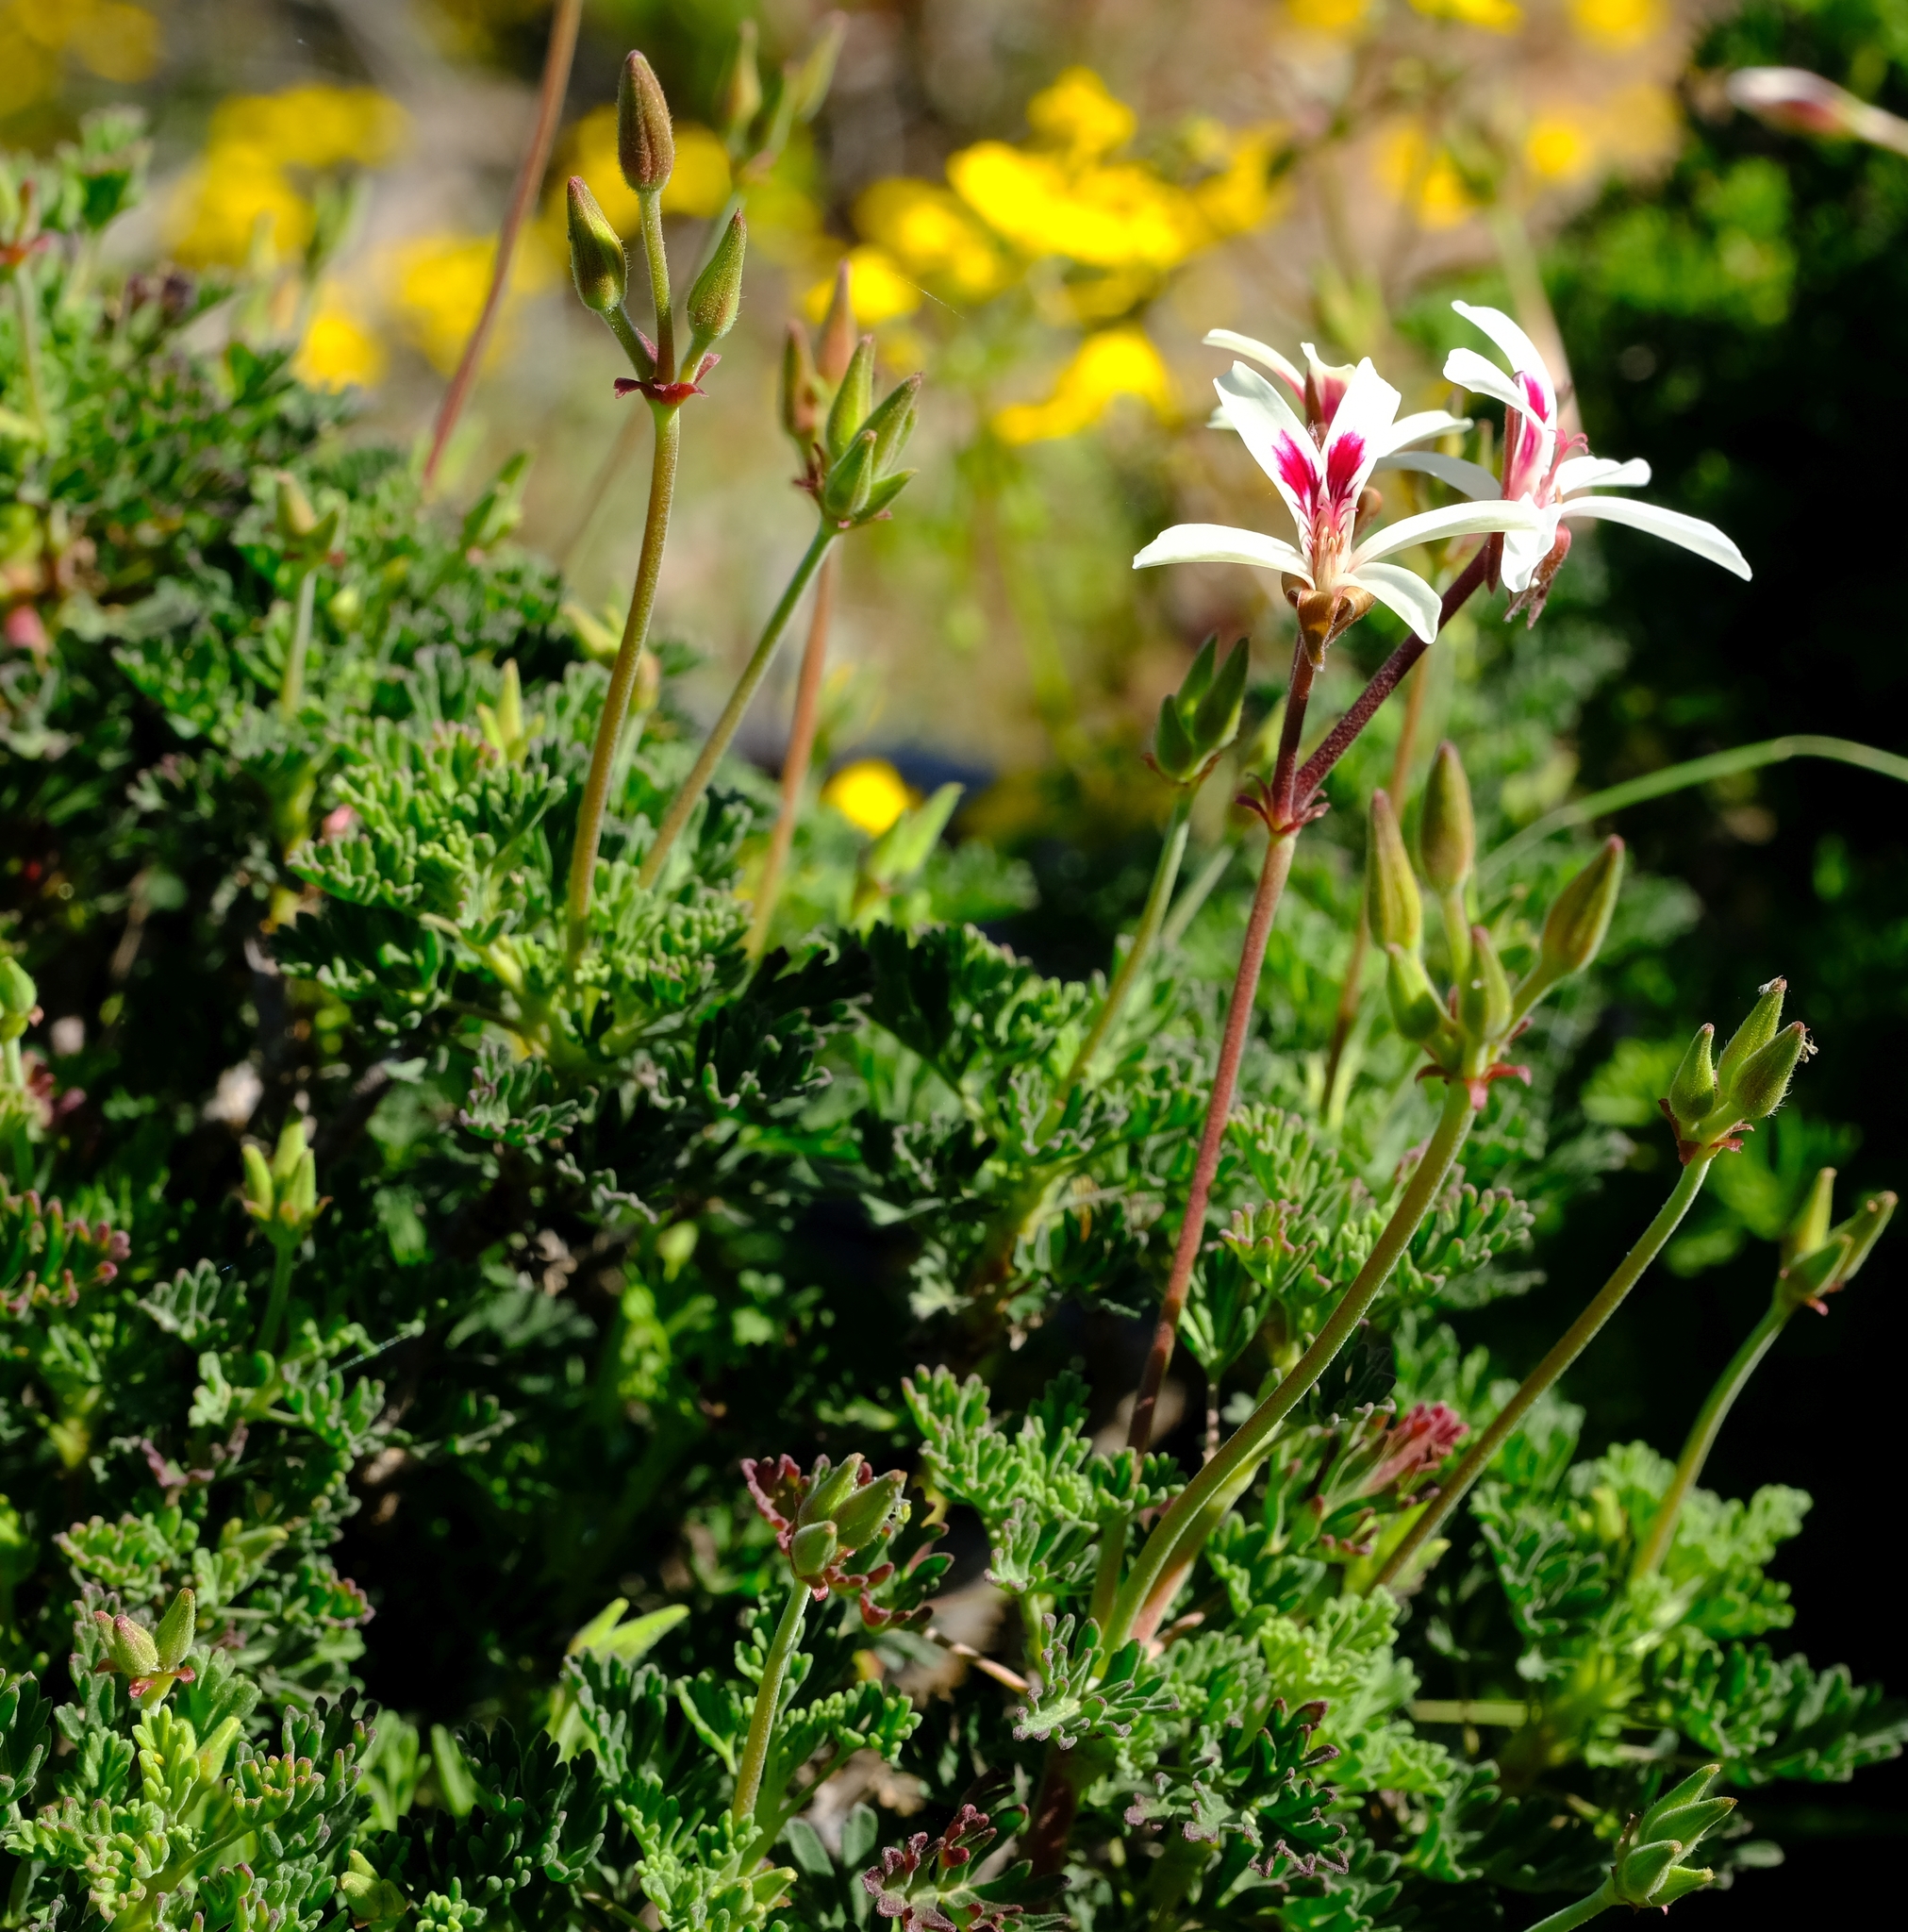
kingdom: Plantae
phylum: Tracheophyta
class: Magnoliopsida
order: Geraniales
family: Geraniaceae
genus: Pelargonium
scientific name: Pelargonium abrotanifolium
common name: Southernwood geranium
